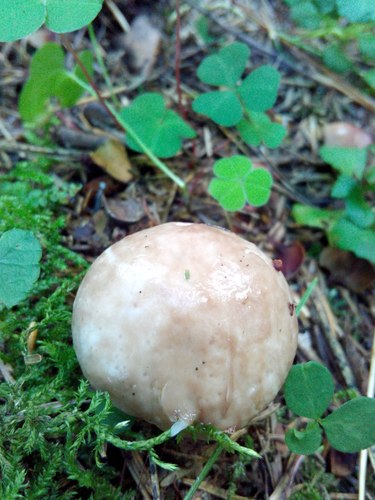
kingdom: Fungi
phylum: Basidiomycota
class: Agaricomycetes
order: Boletales
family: Suillaceae
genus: Suillus
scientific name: Suillus placidus
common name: Slippery white bolete
